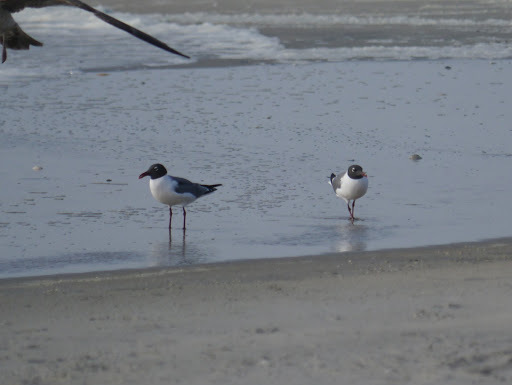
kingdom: Animalia
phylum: Chordata
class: Aves
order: Charadriiformes
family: Laridae
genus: Leucophaeus
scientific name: Leucophaeus atricilla
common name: Laughing gull
